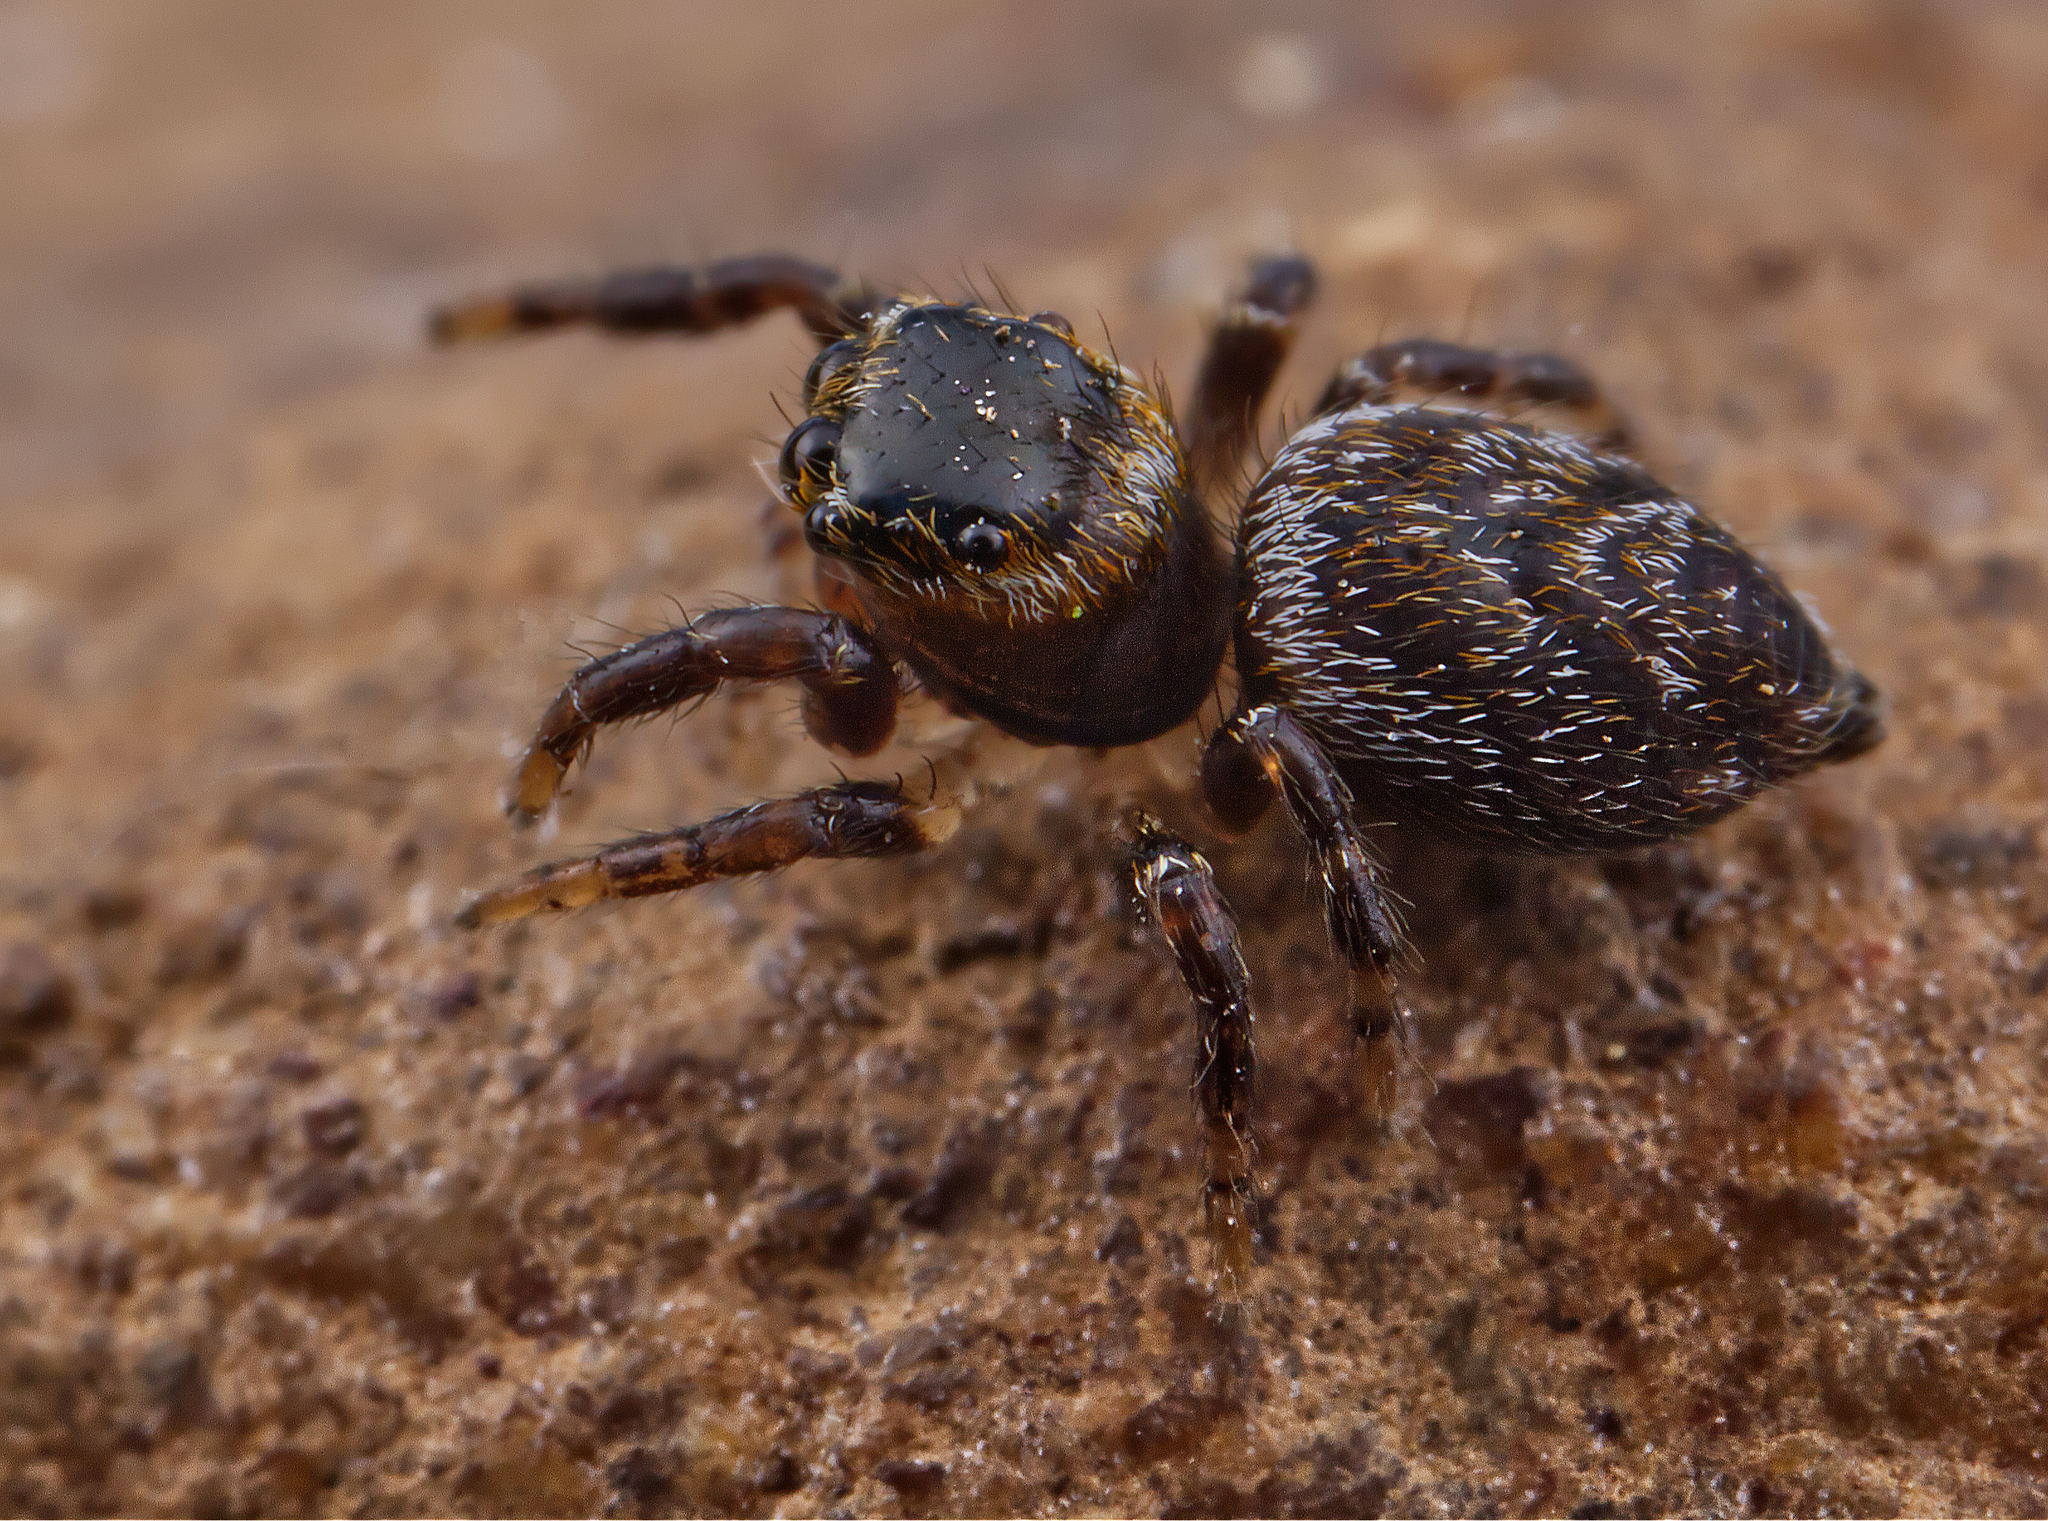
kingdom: Animalia
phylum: Arthropoda
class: Arachnida
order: Araneae
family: Salticidae
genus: Evarcha
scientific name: Evarcha hoyi
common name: Hoy's jumping spider
